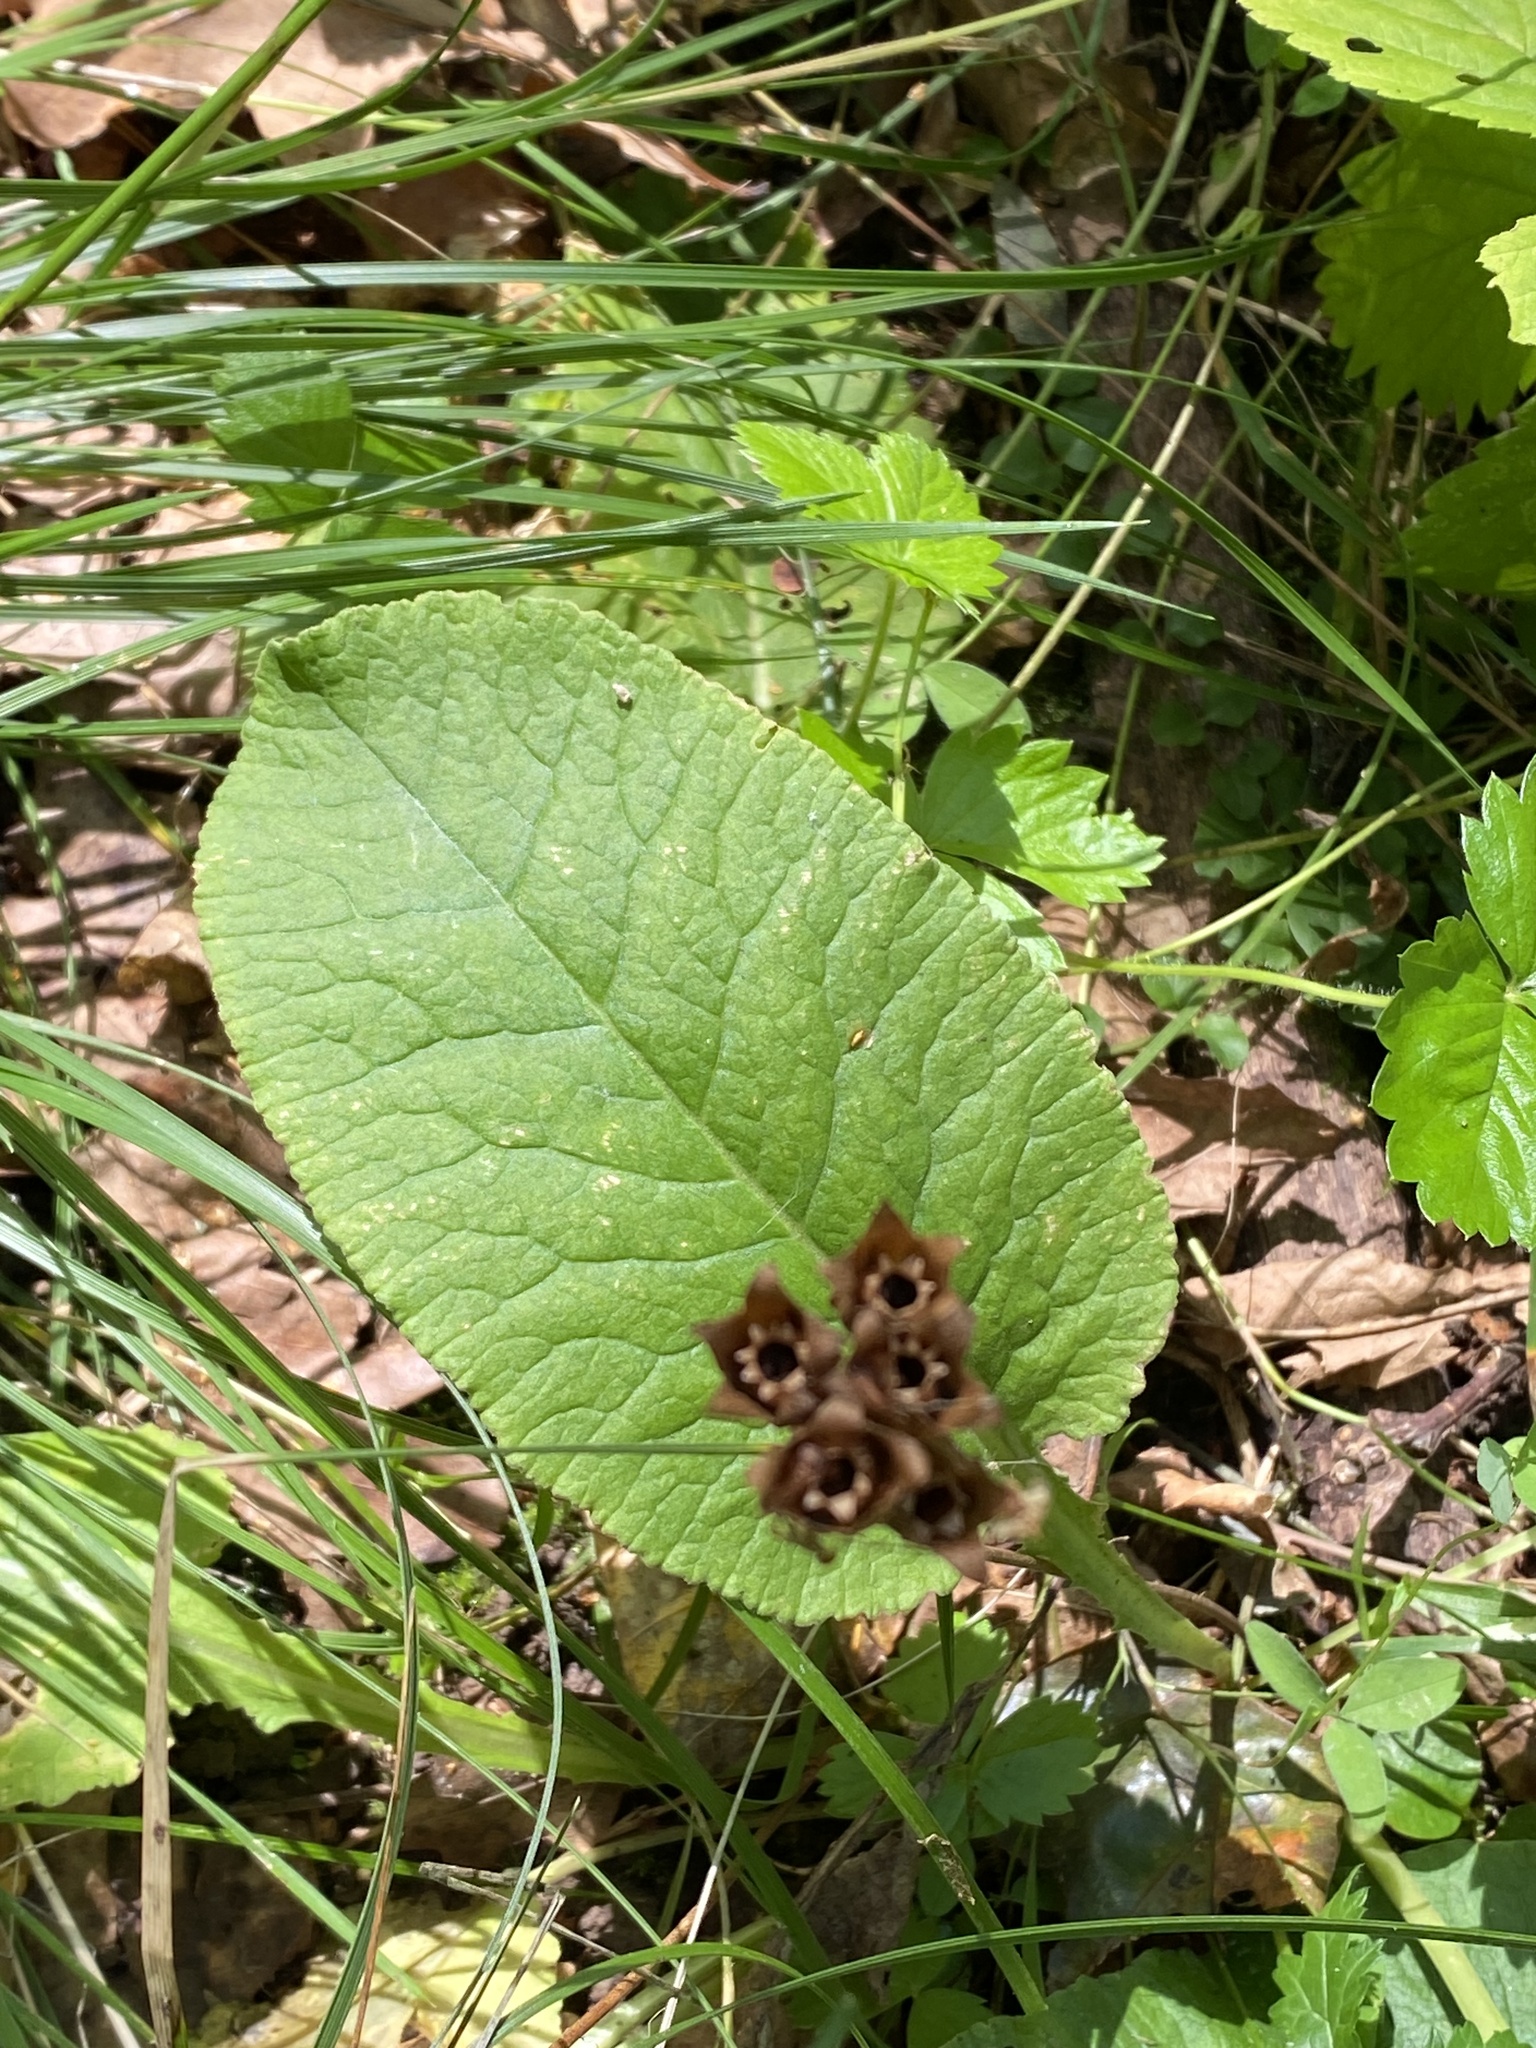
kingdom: Plantae
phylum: Tracheophyta
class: Magnoliopsida
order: Ericales
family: Primulaceae
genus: Primula
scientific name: Primula veris
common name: Cowslip
